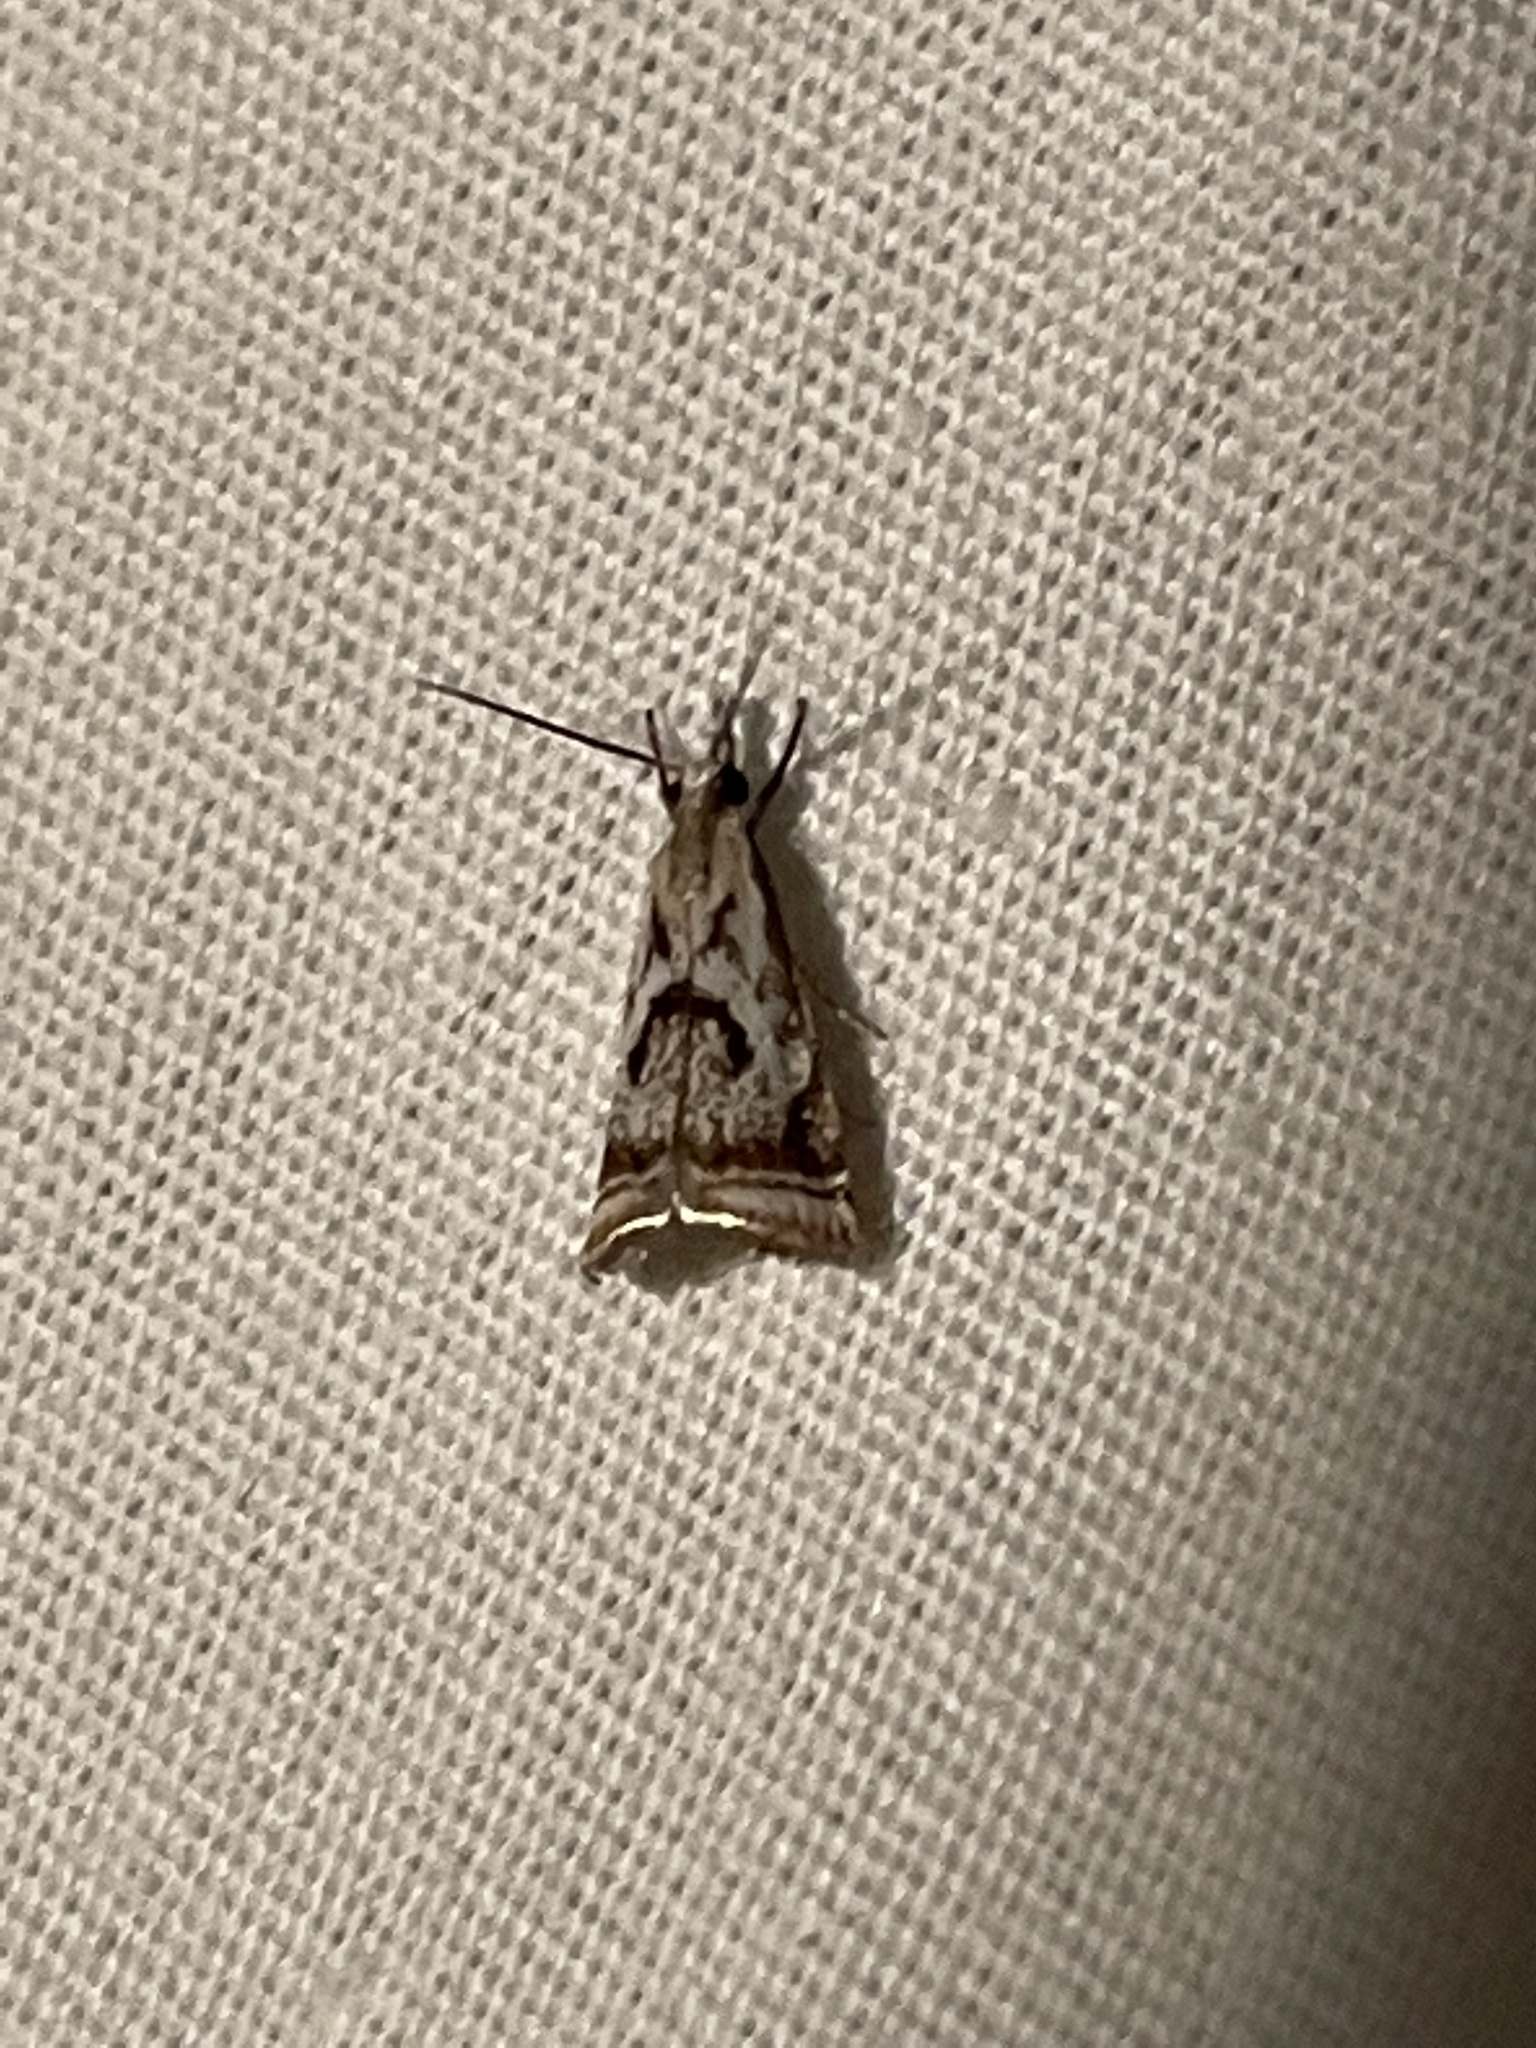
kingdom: Animalia
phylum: Arthropoda
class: Insecta
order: Lepidoptera
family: Crambidae
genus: Microcrambus
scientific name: Microcrambus elegans
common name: Elegant grass-veneer
